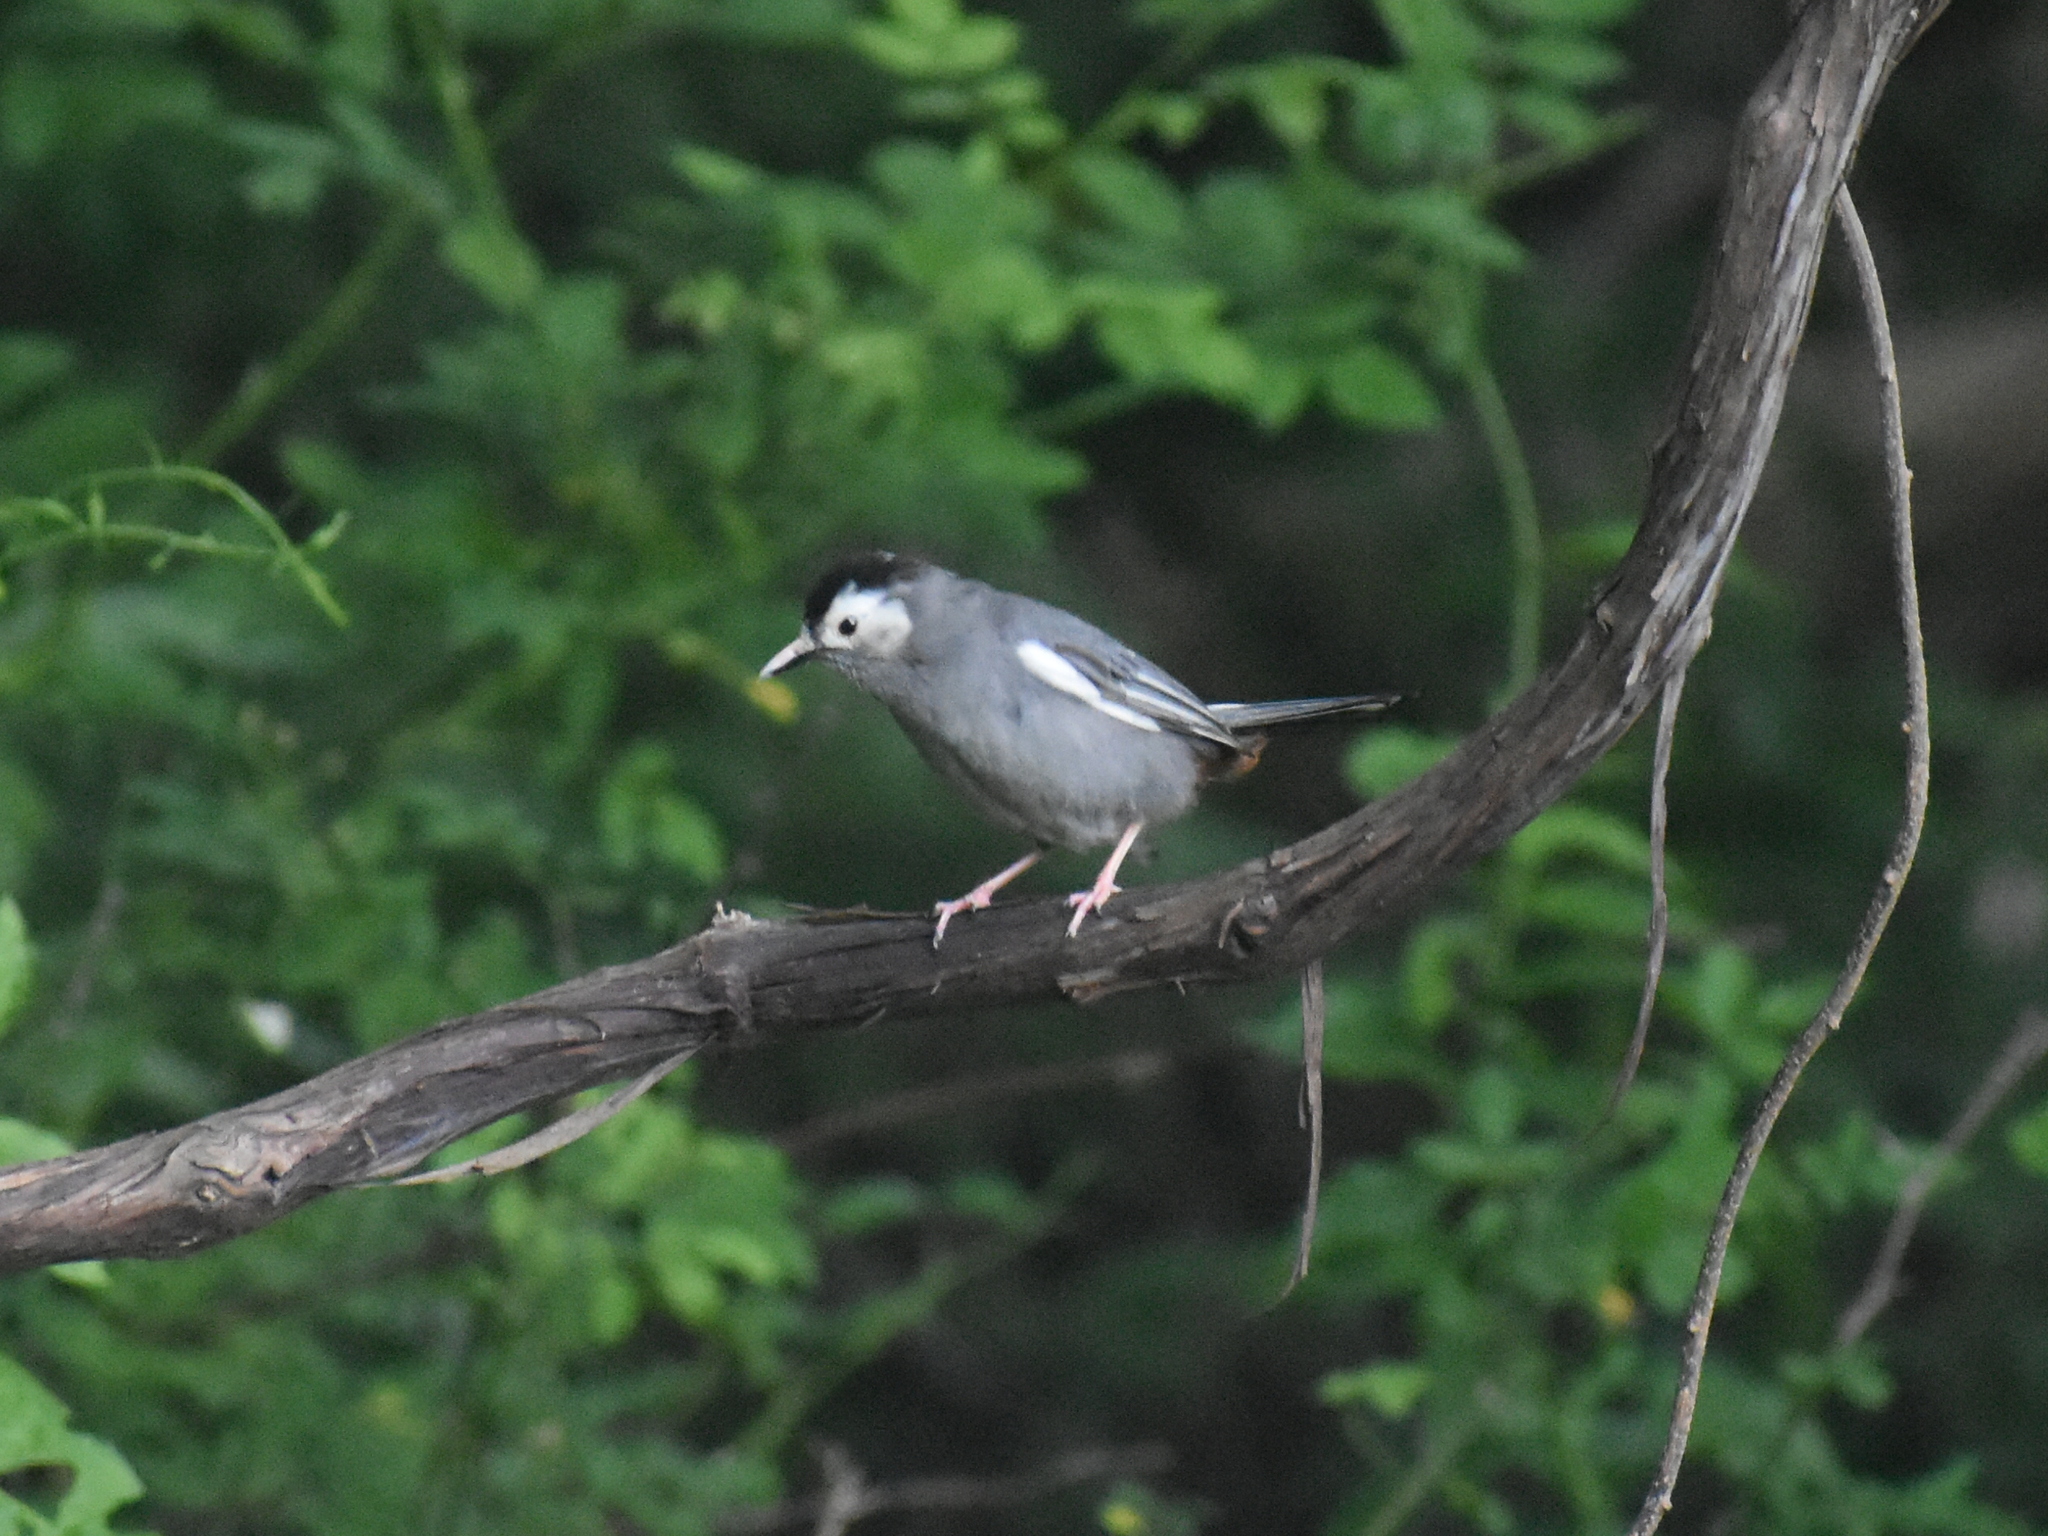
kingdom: Animalia
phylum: Chordata
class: Aves
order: Passeriformes
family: Mimidae
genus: Dumetella
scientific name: Dumetella carolinensis
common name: Gray catbird
